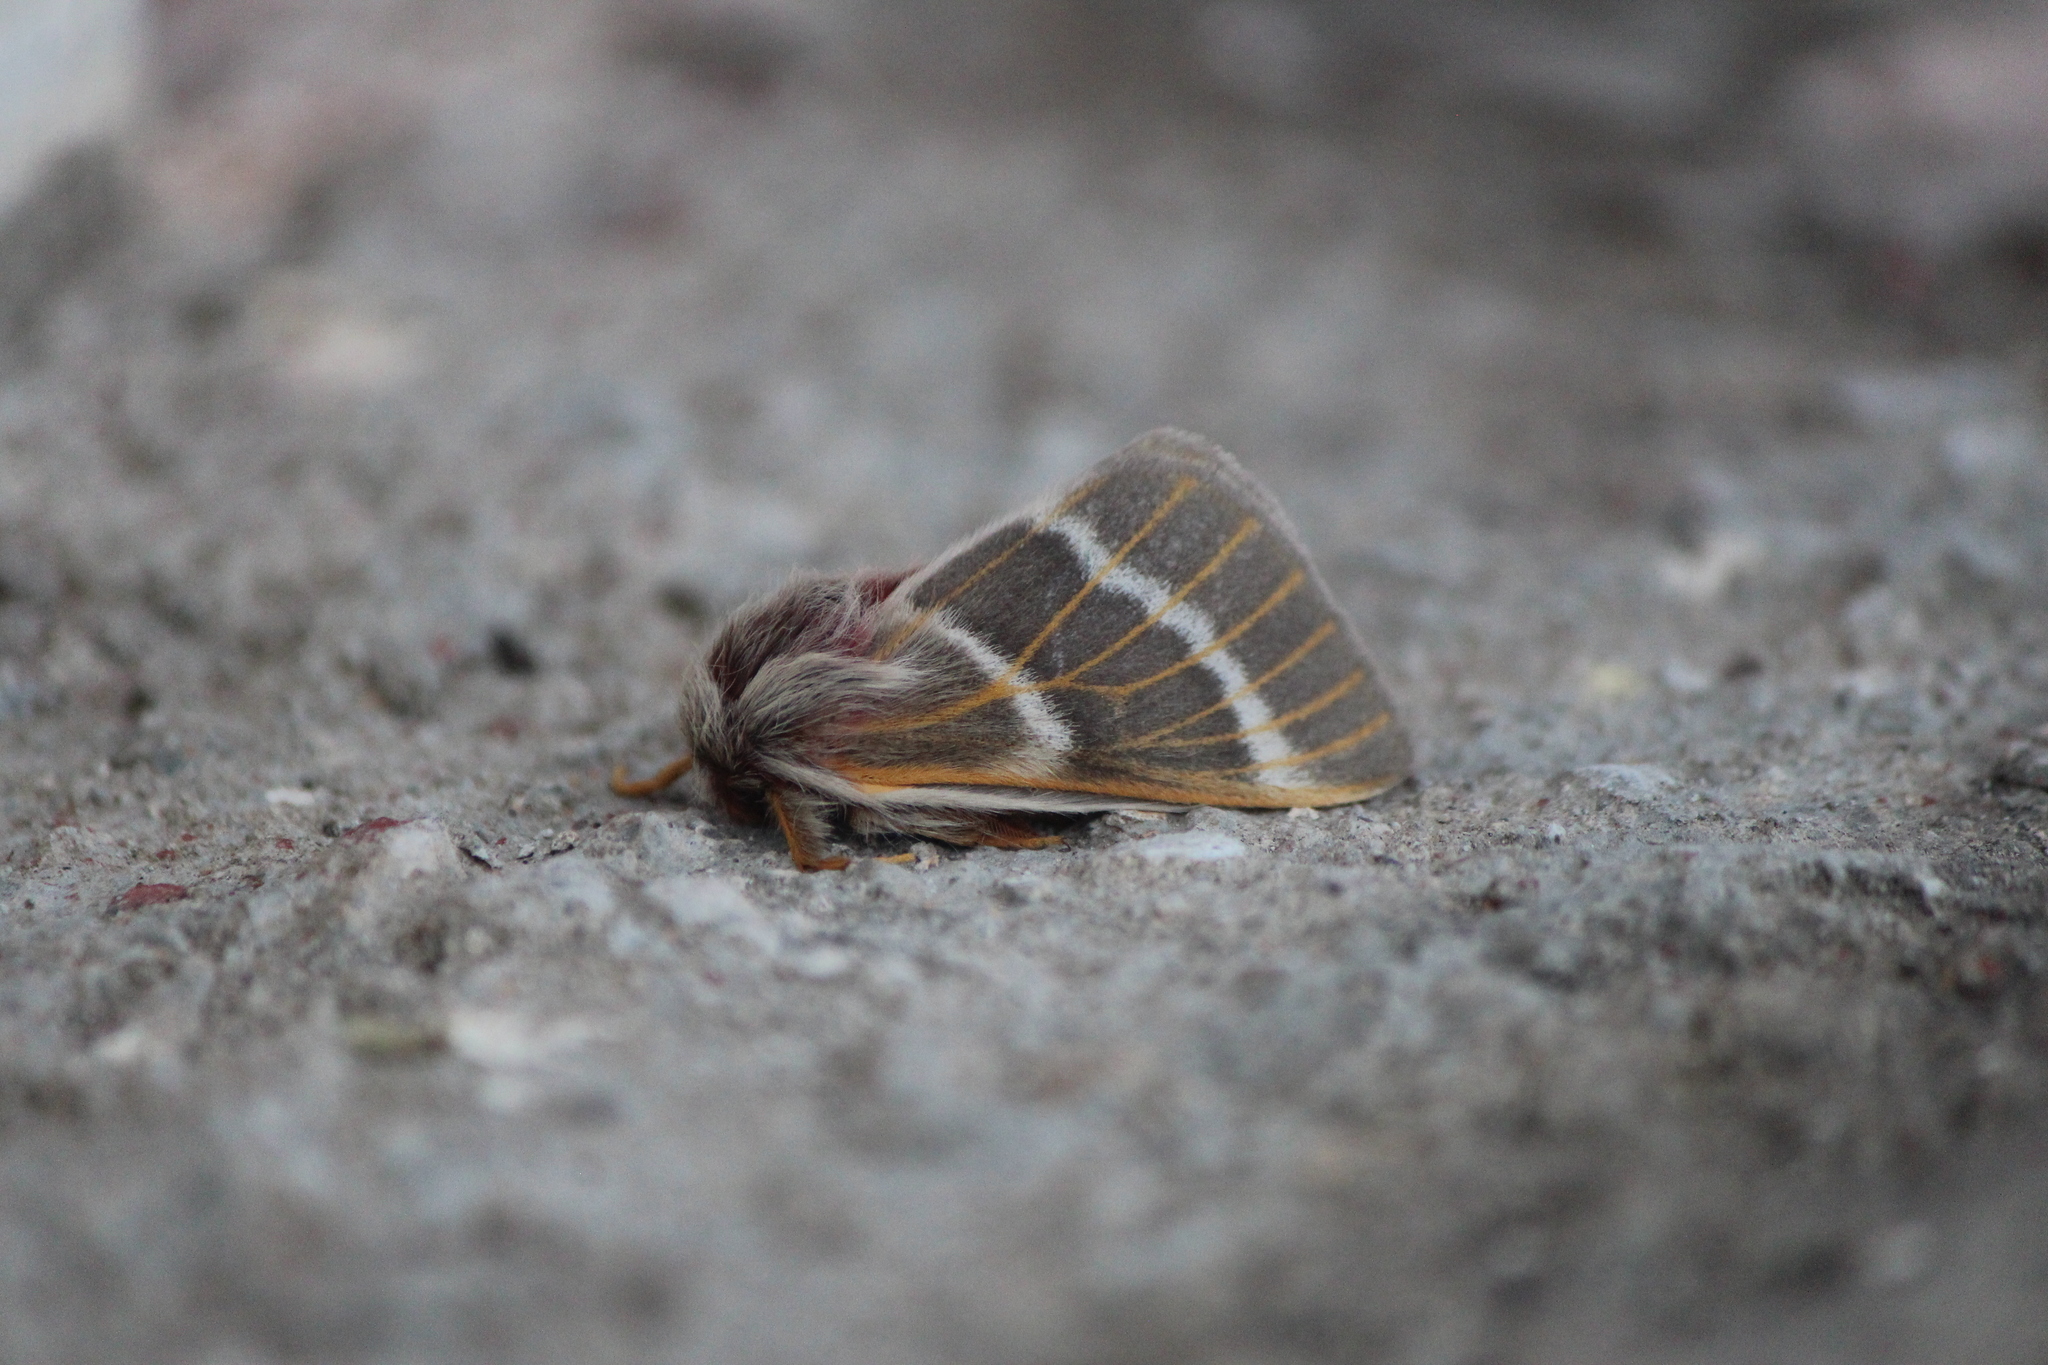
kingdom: Animalia
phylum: Arthropoda
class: Insecta
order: Lepidoptera
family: Saturniidae
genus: Hemileuca
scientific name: Hemileuca rubridorsa
